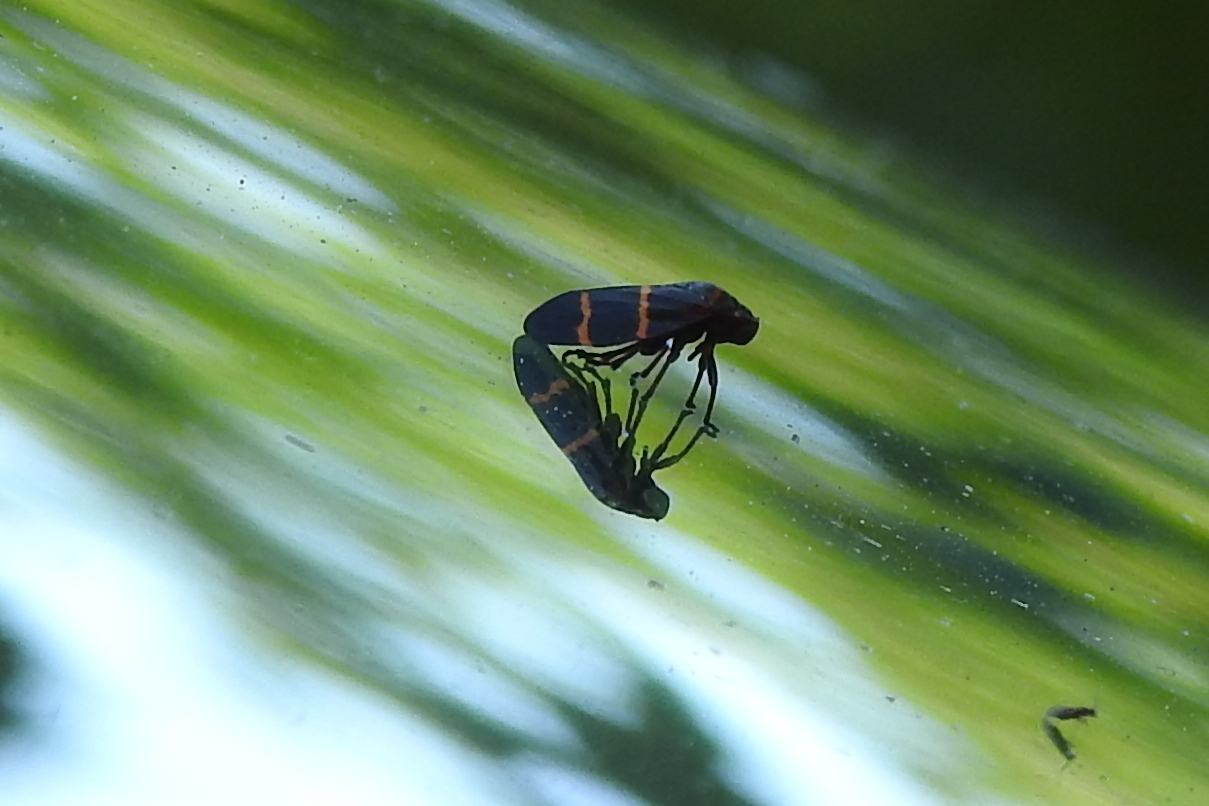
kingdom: Animalia
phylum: Arthropoda
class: Insecta
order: Hemiptera
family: Cercopidae
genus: Prosapia
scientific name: Prosapia bicincta
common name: Twolined spittlebug
